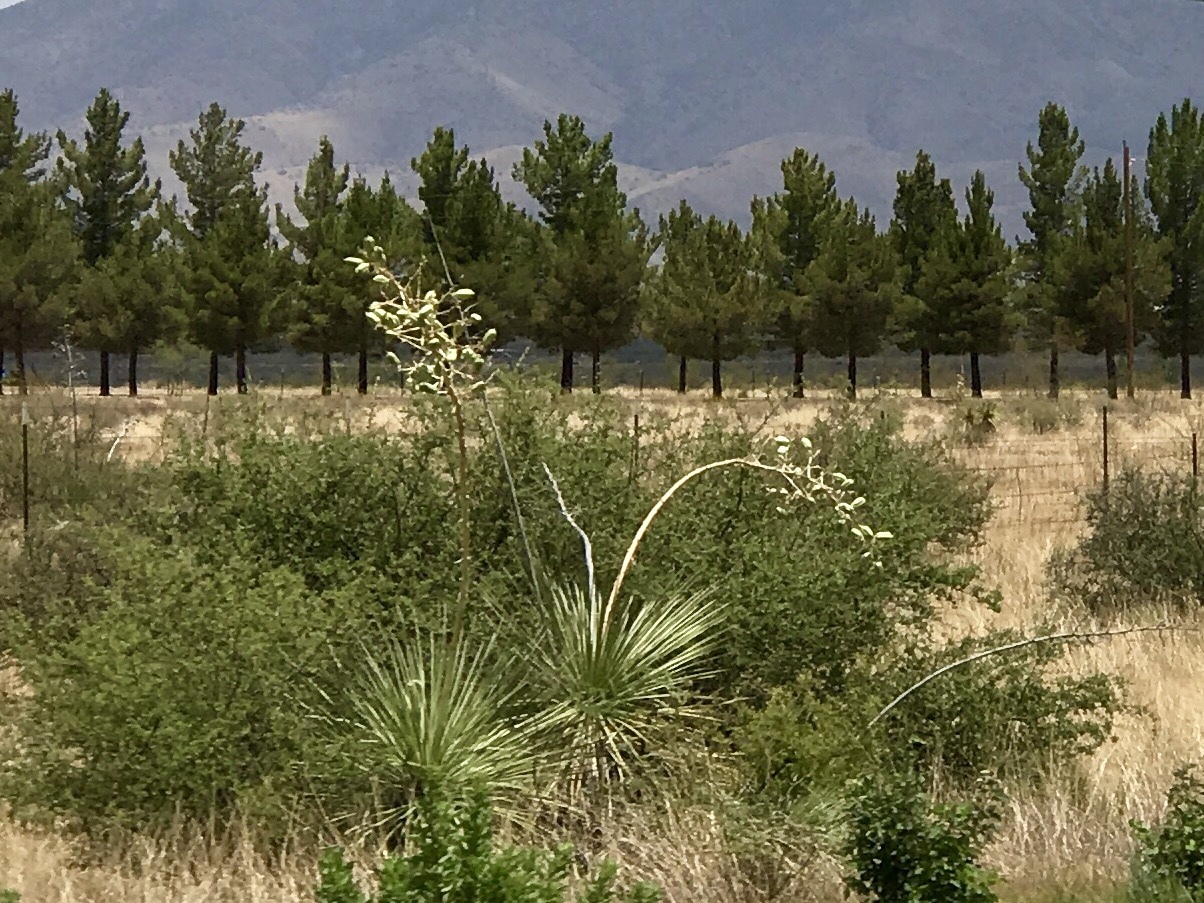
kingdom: Plantae
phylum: Tracheophyta
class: Liliopsida
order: Asparagales
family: Asparagaceae
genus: Yucca
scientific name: Yucca elata
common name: Palmella
